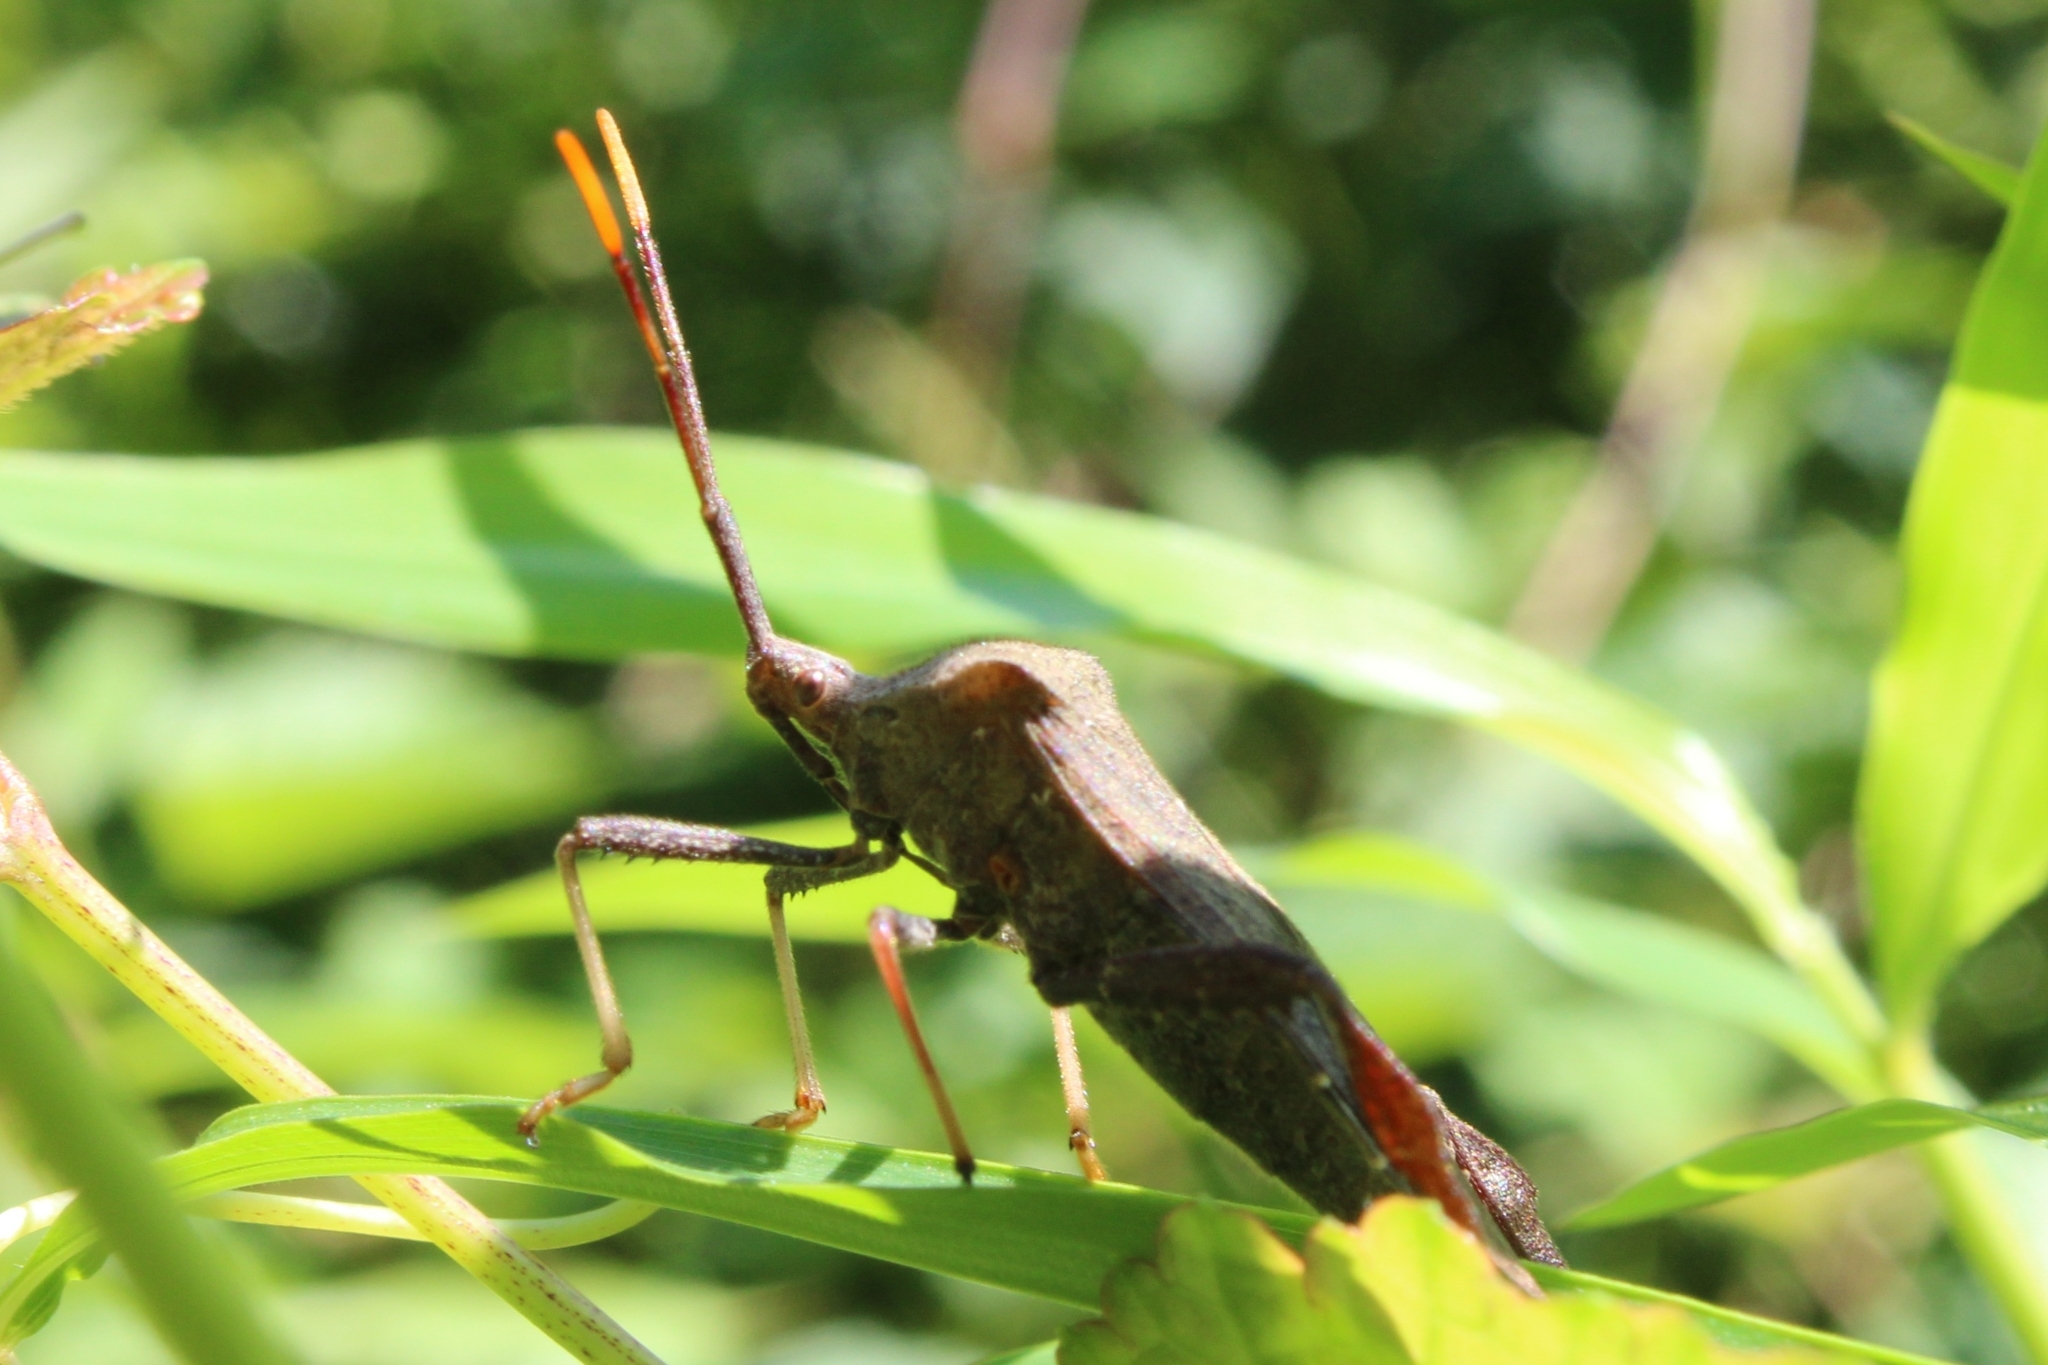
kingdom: Animalia
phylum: Arthropoda
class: Insecta
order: Hemiptera
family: Coreidae
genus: Acanthocephala
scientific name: Acanthocephala terminalis
